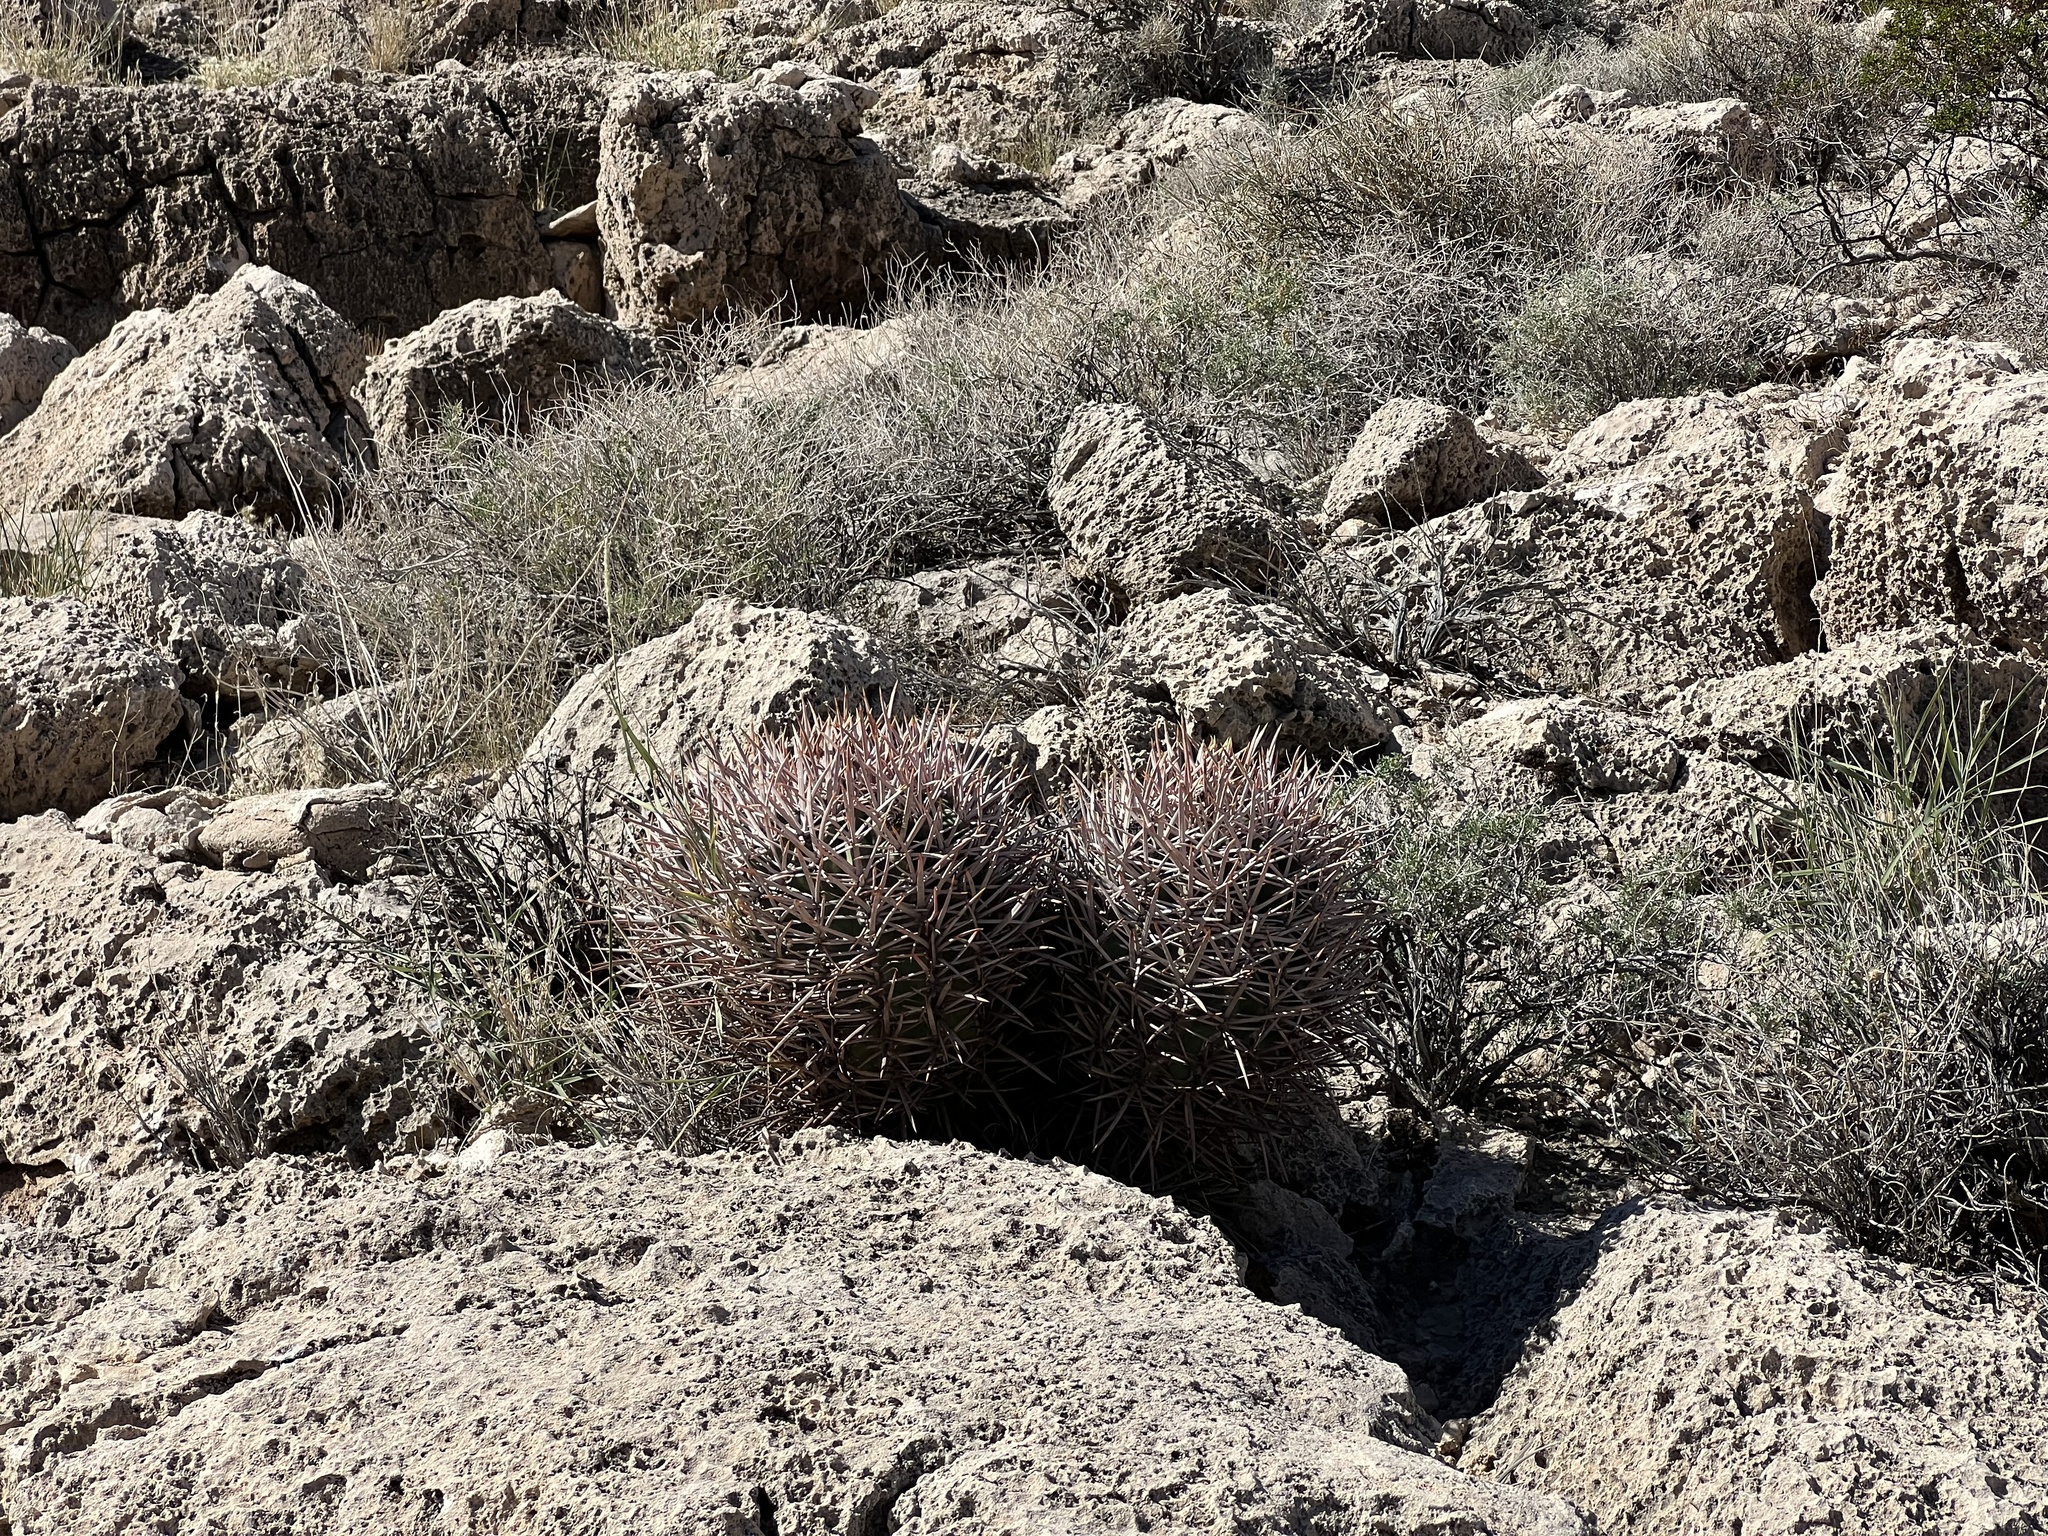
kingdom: Plantae
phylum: Tracheophyta
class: Magnoliopsida
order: Caryophyllales
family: Cactaceae
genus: Echinocactus
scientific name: Echinocactus polycephalus
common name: Cottontop cactus
